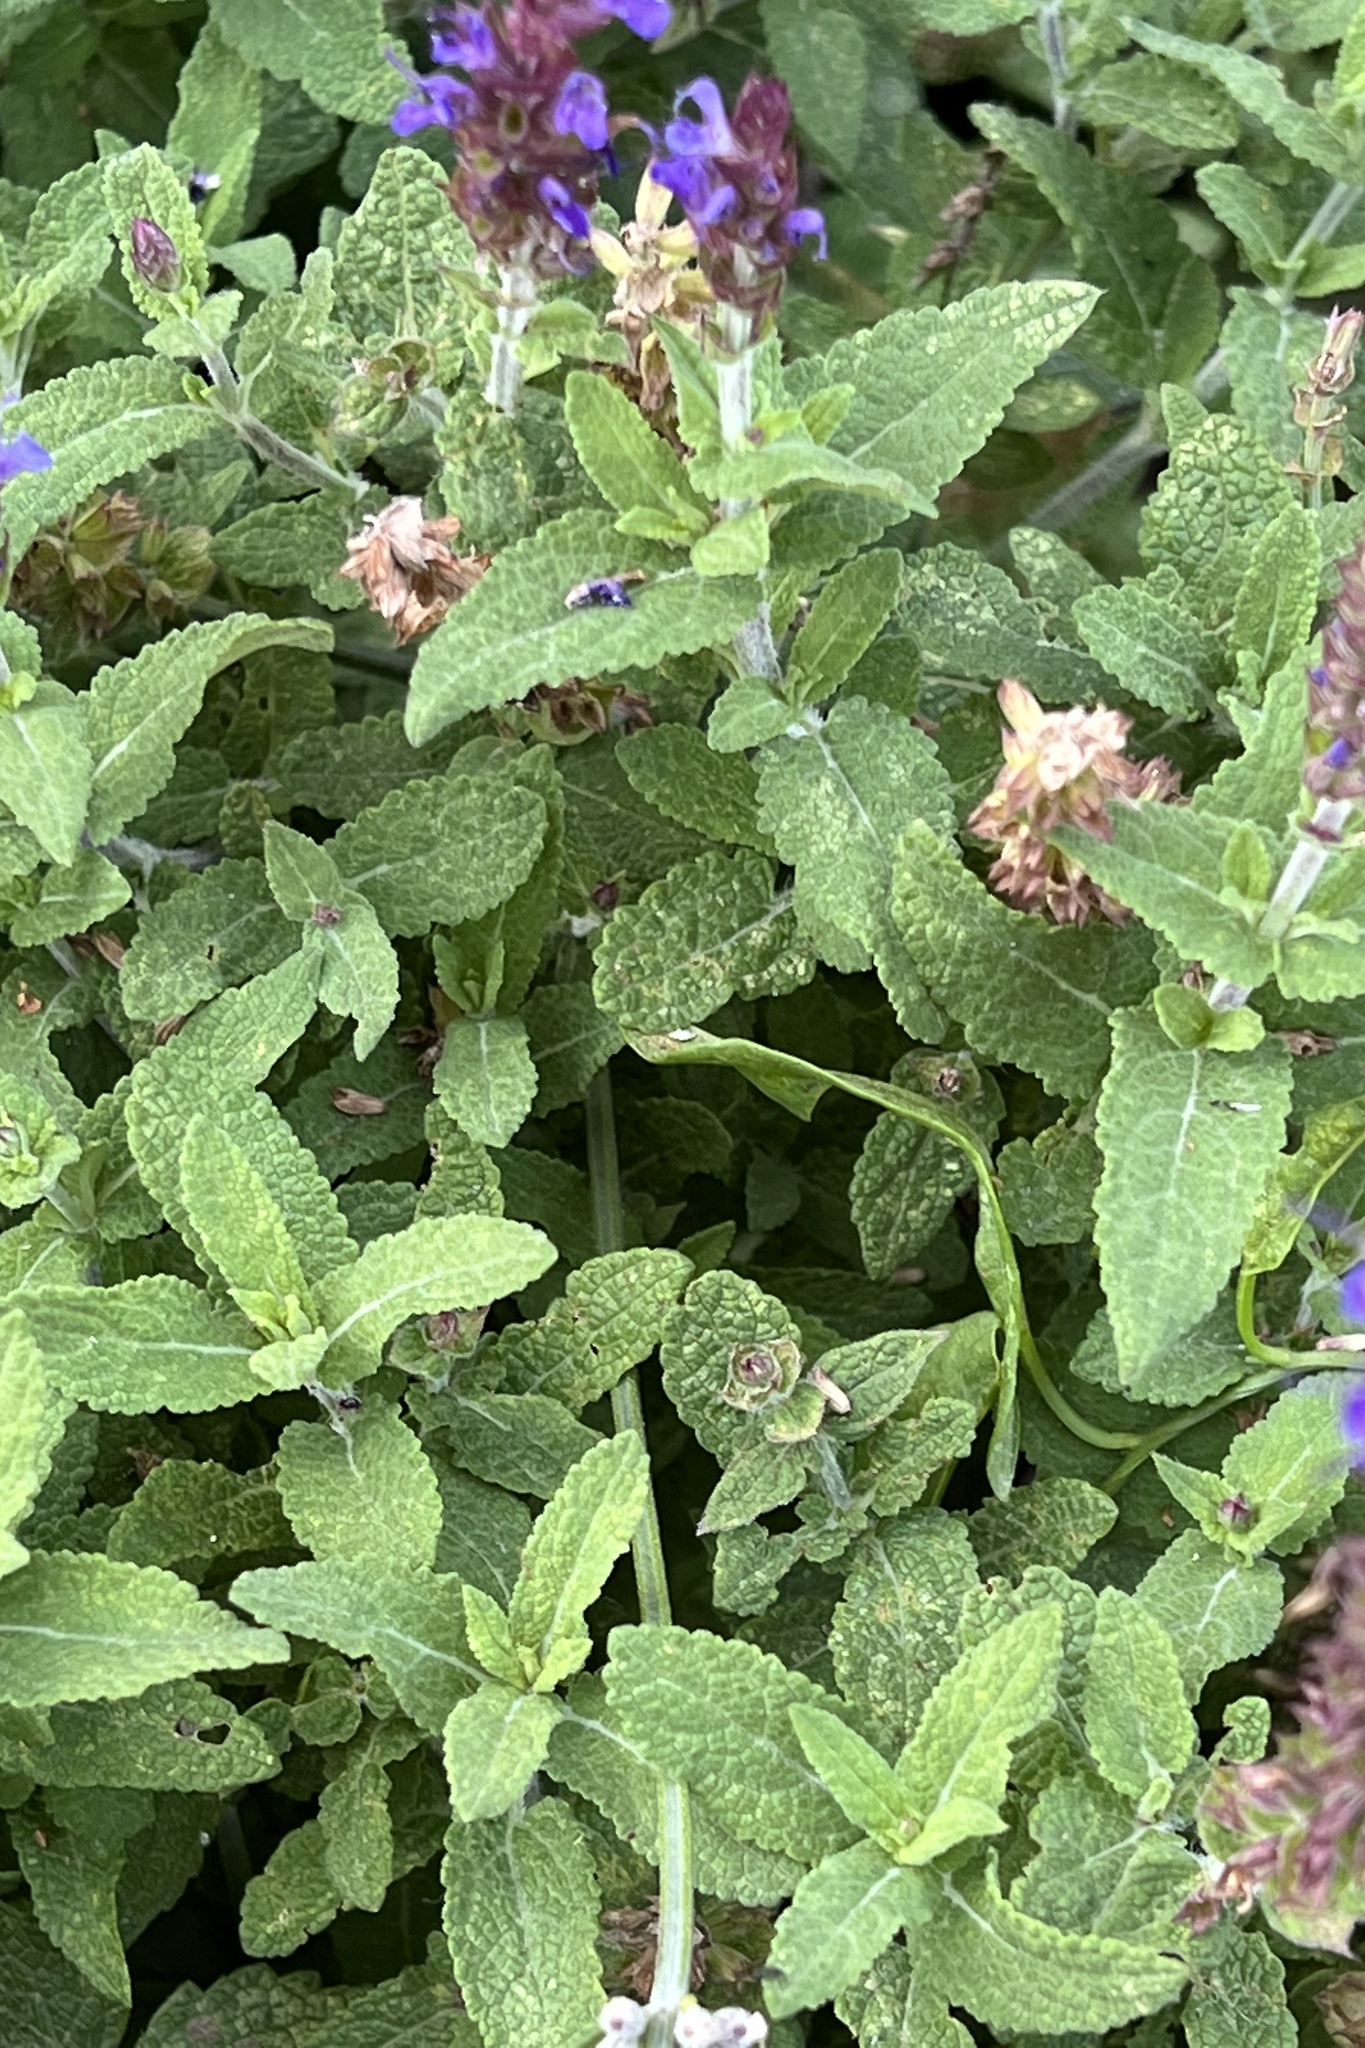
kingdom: Plantae
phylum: Tracheophyta
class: Magnoliopsida
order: Lamiales
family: Lamiaceae
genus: Salvia
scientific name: Salvia nemorosa
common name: Balkan clary
